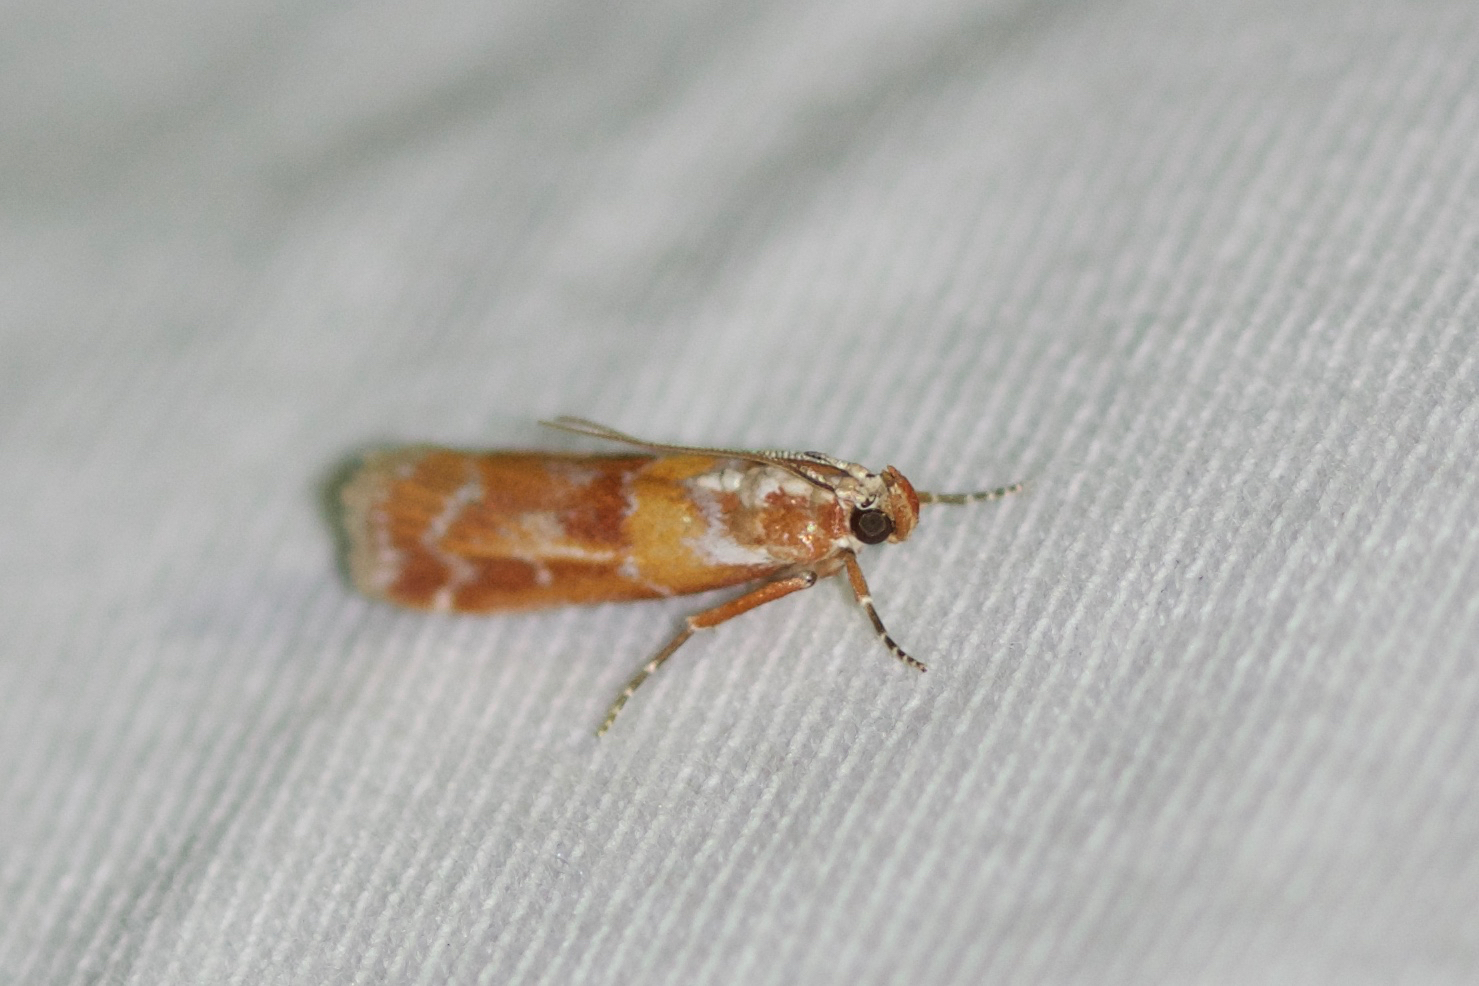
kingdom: Animalia
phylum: Arthropoda
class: Insecta
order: Lepidoptera
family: Pyralidae
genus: Dioryctria
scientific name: Dioryctria disclusa
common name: Rusty pine cone moth
